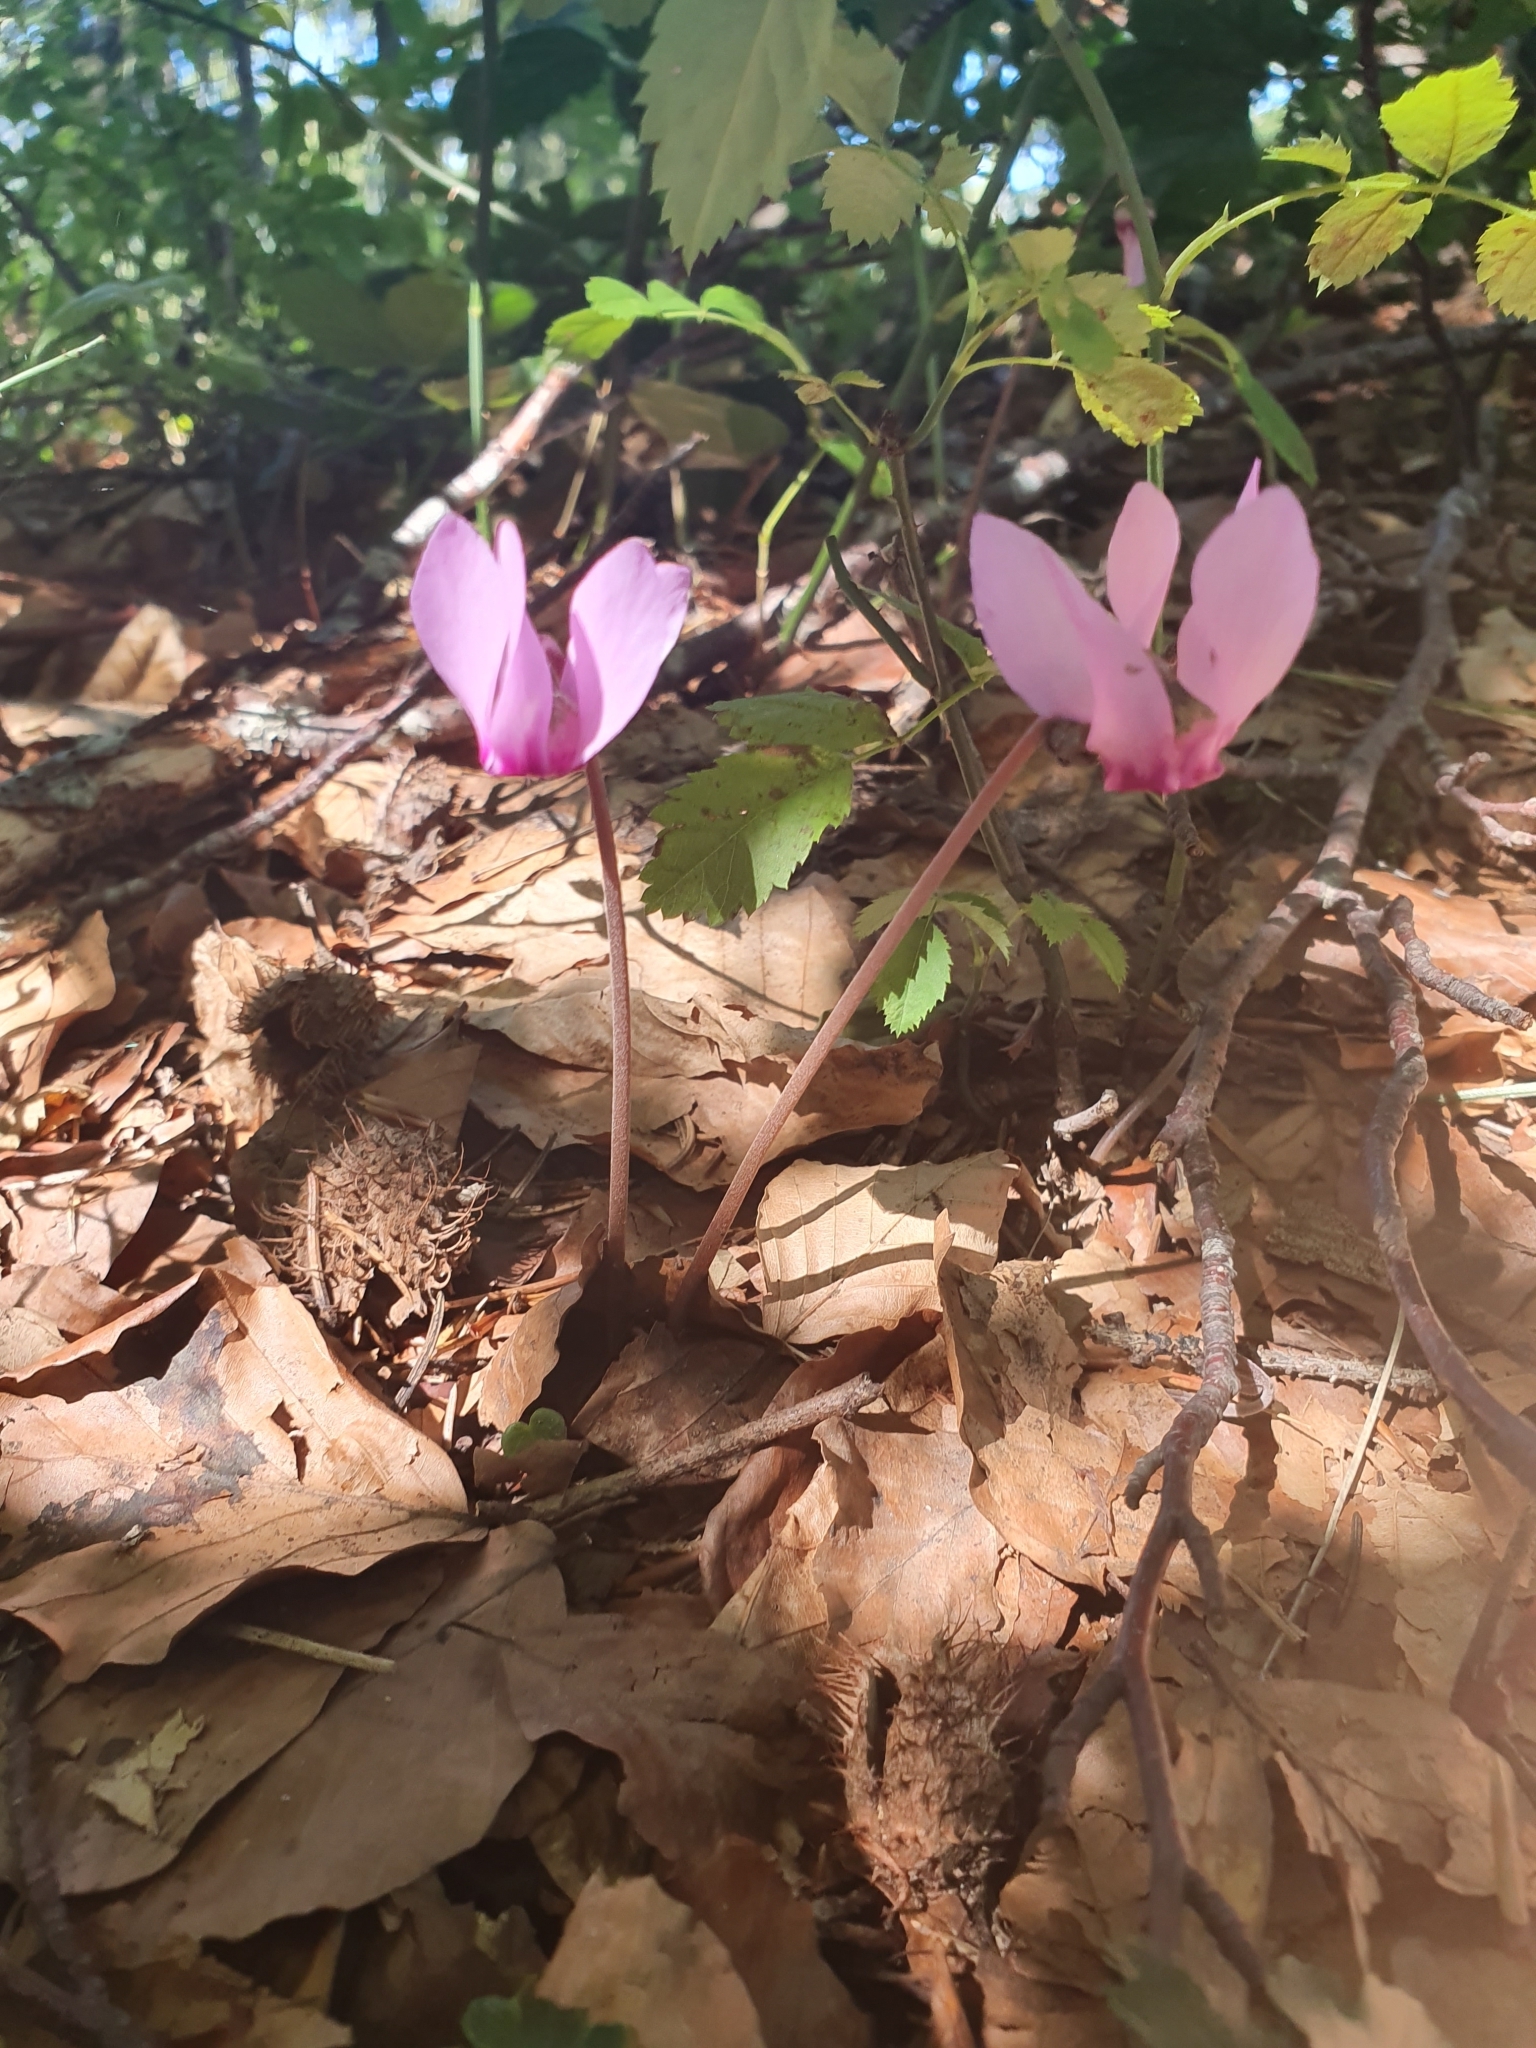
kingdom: Plantae
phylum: Tracheophyta
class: Magnoliopsida
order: Ericales
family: Primulaceae
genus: Cyclamen
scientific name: Cyclamen purpurascens
